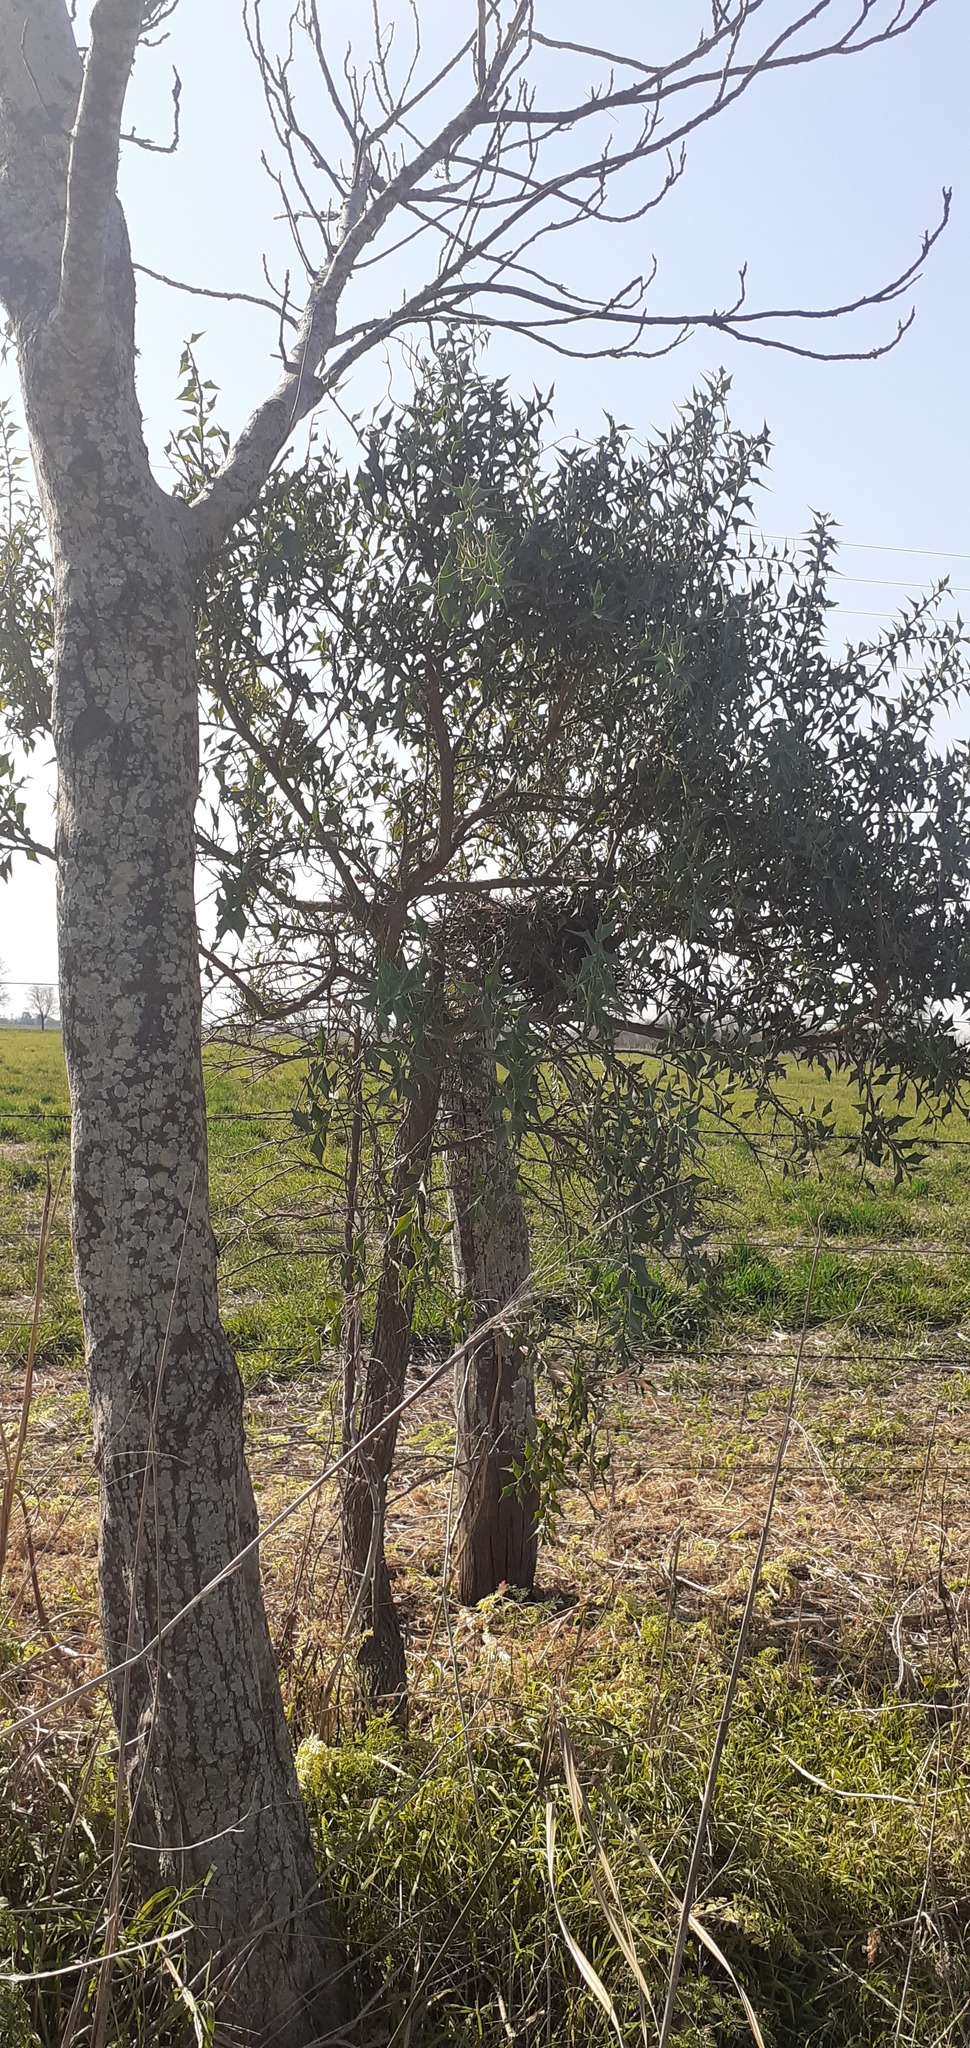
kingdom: Plantae
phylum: Tracheophyta
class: Magnoliopsida
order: Santalales
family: Cervantesiaceae
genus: Jodina
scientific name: Jodina rhombifolia
